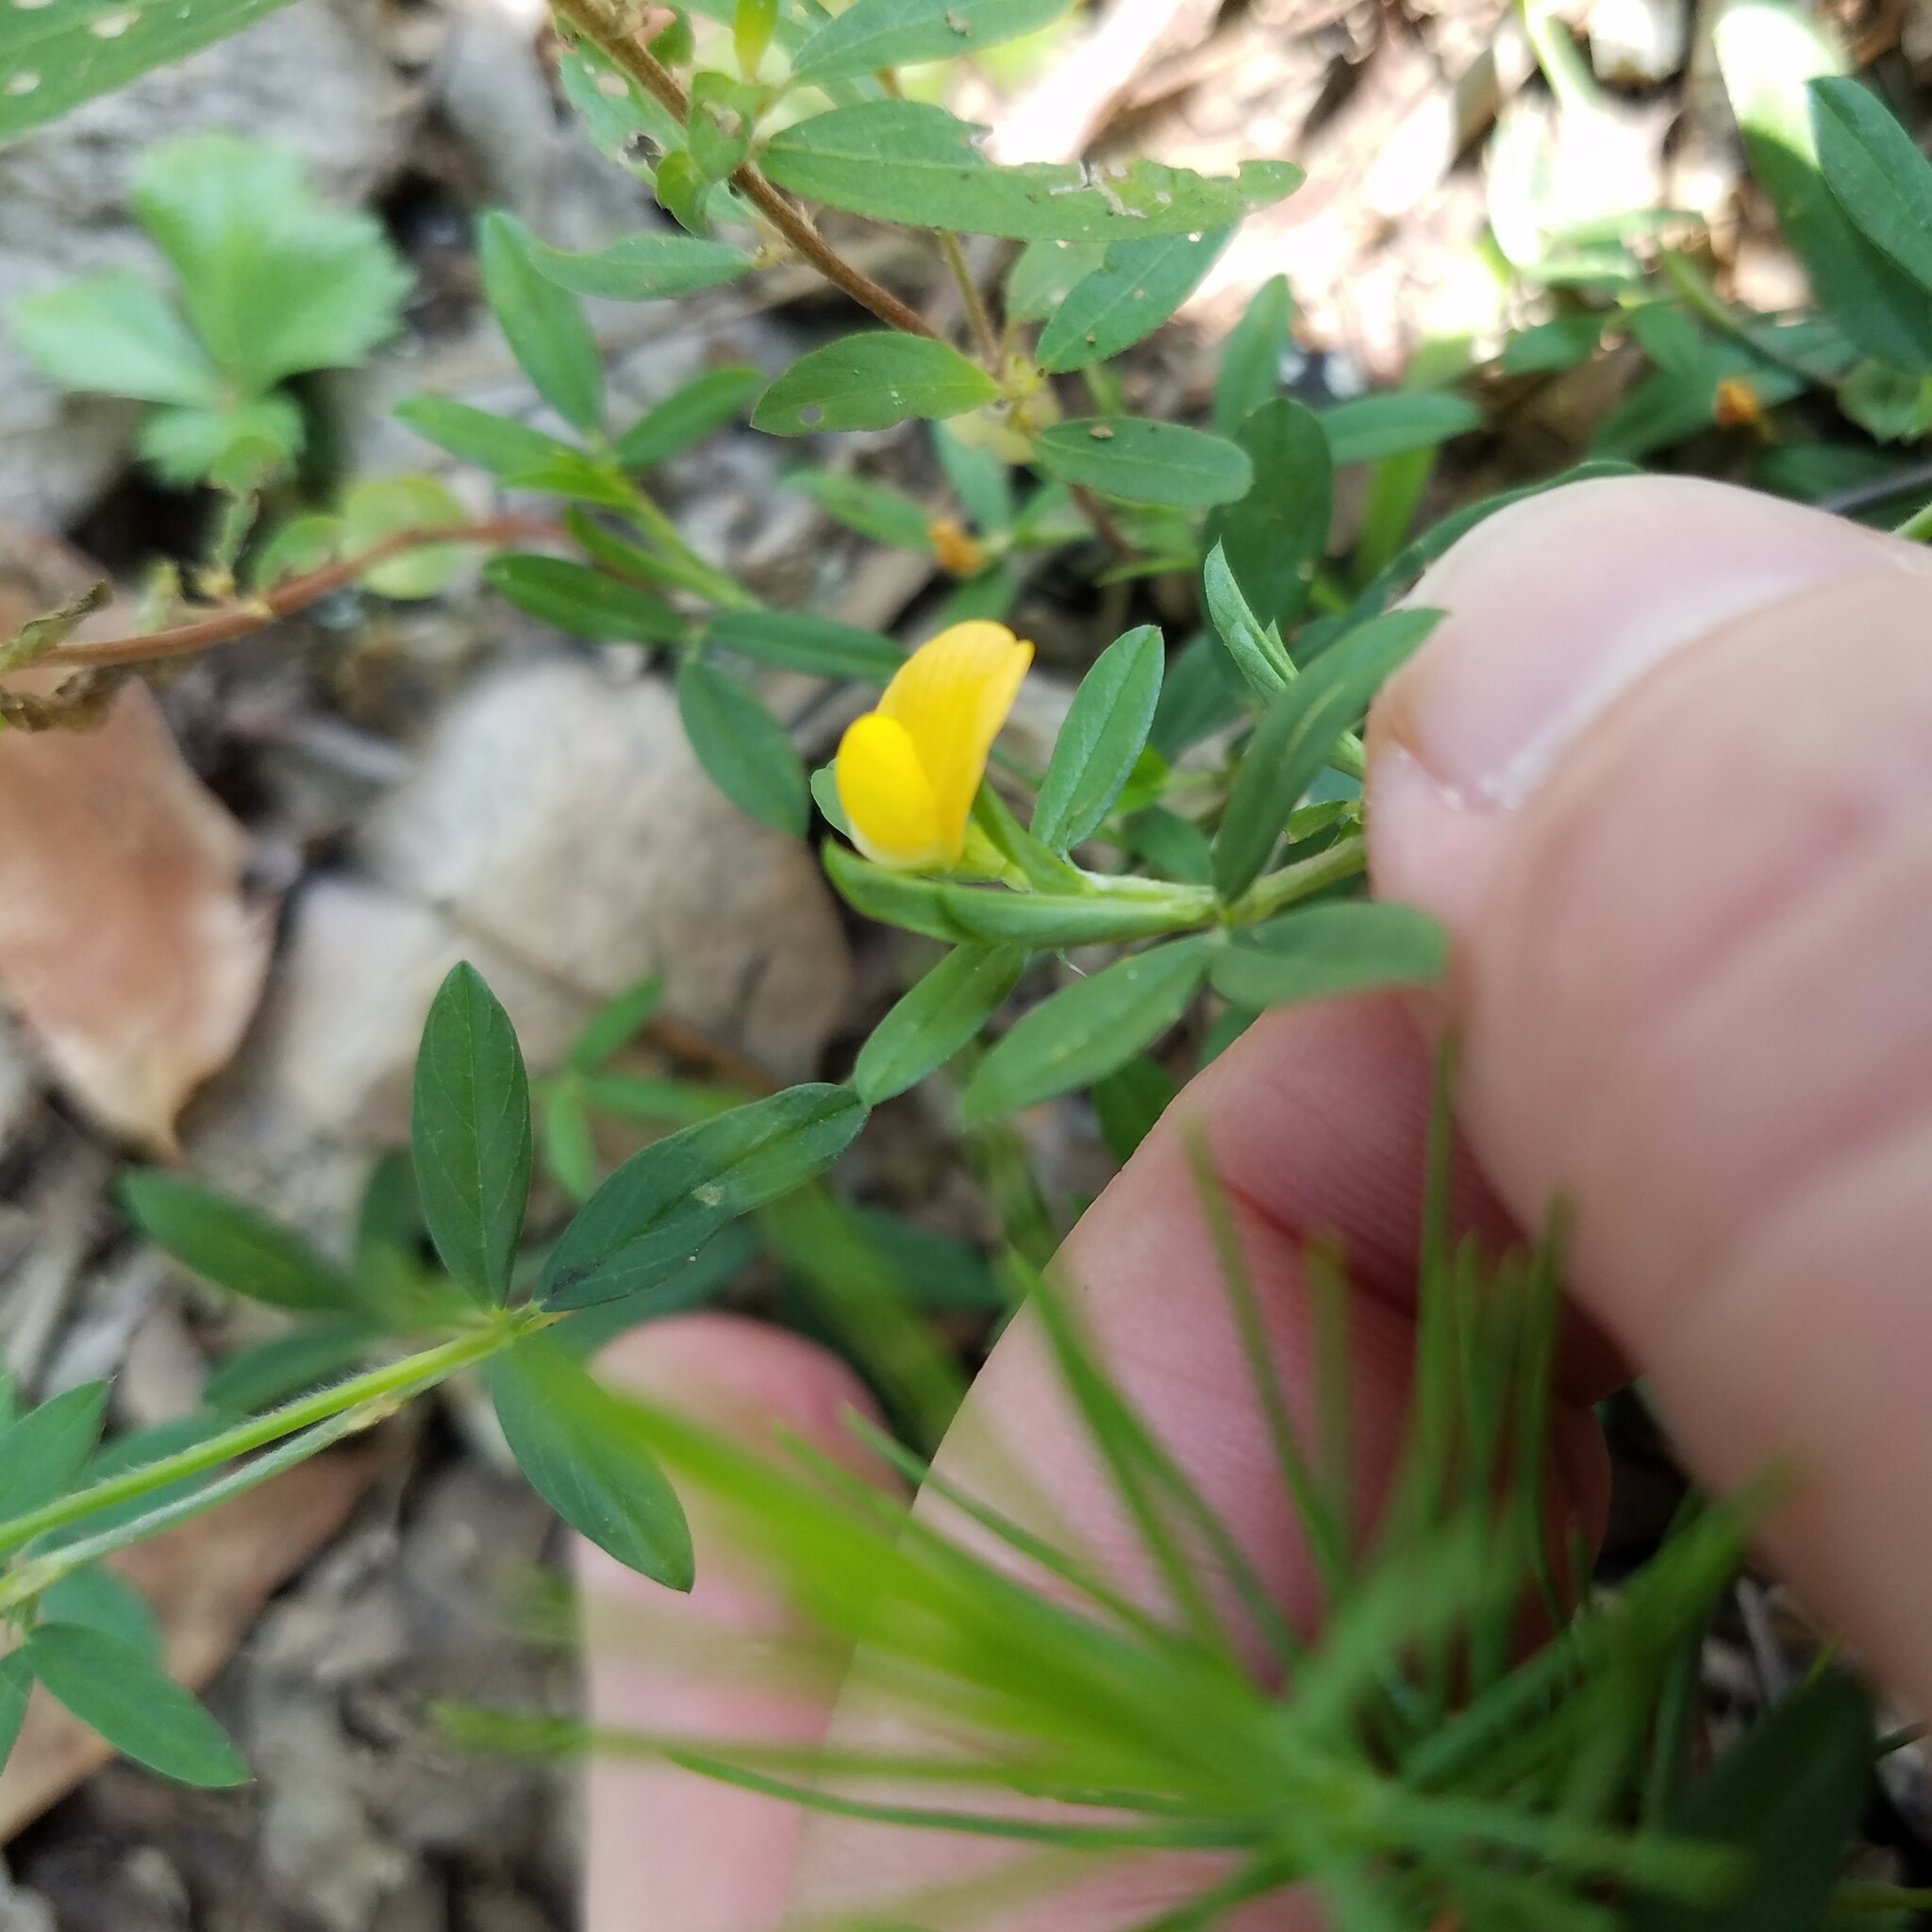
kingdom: Plantae
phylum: Tracheophyta
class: Magnoliopsida
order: Fabales
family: Fabaceae
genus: Stylosanthes
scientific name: Stylosanthes biflora
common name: Two-flower pencil-flower
